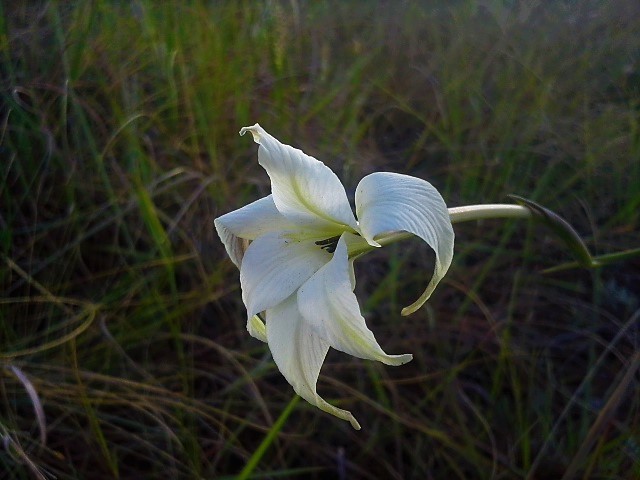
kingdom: Plantae
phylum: Tracheophyta
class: Liliopsida
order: Asparagales
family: Iridaceae
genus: Gladiolus
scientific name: Gladiolus longicollis
